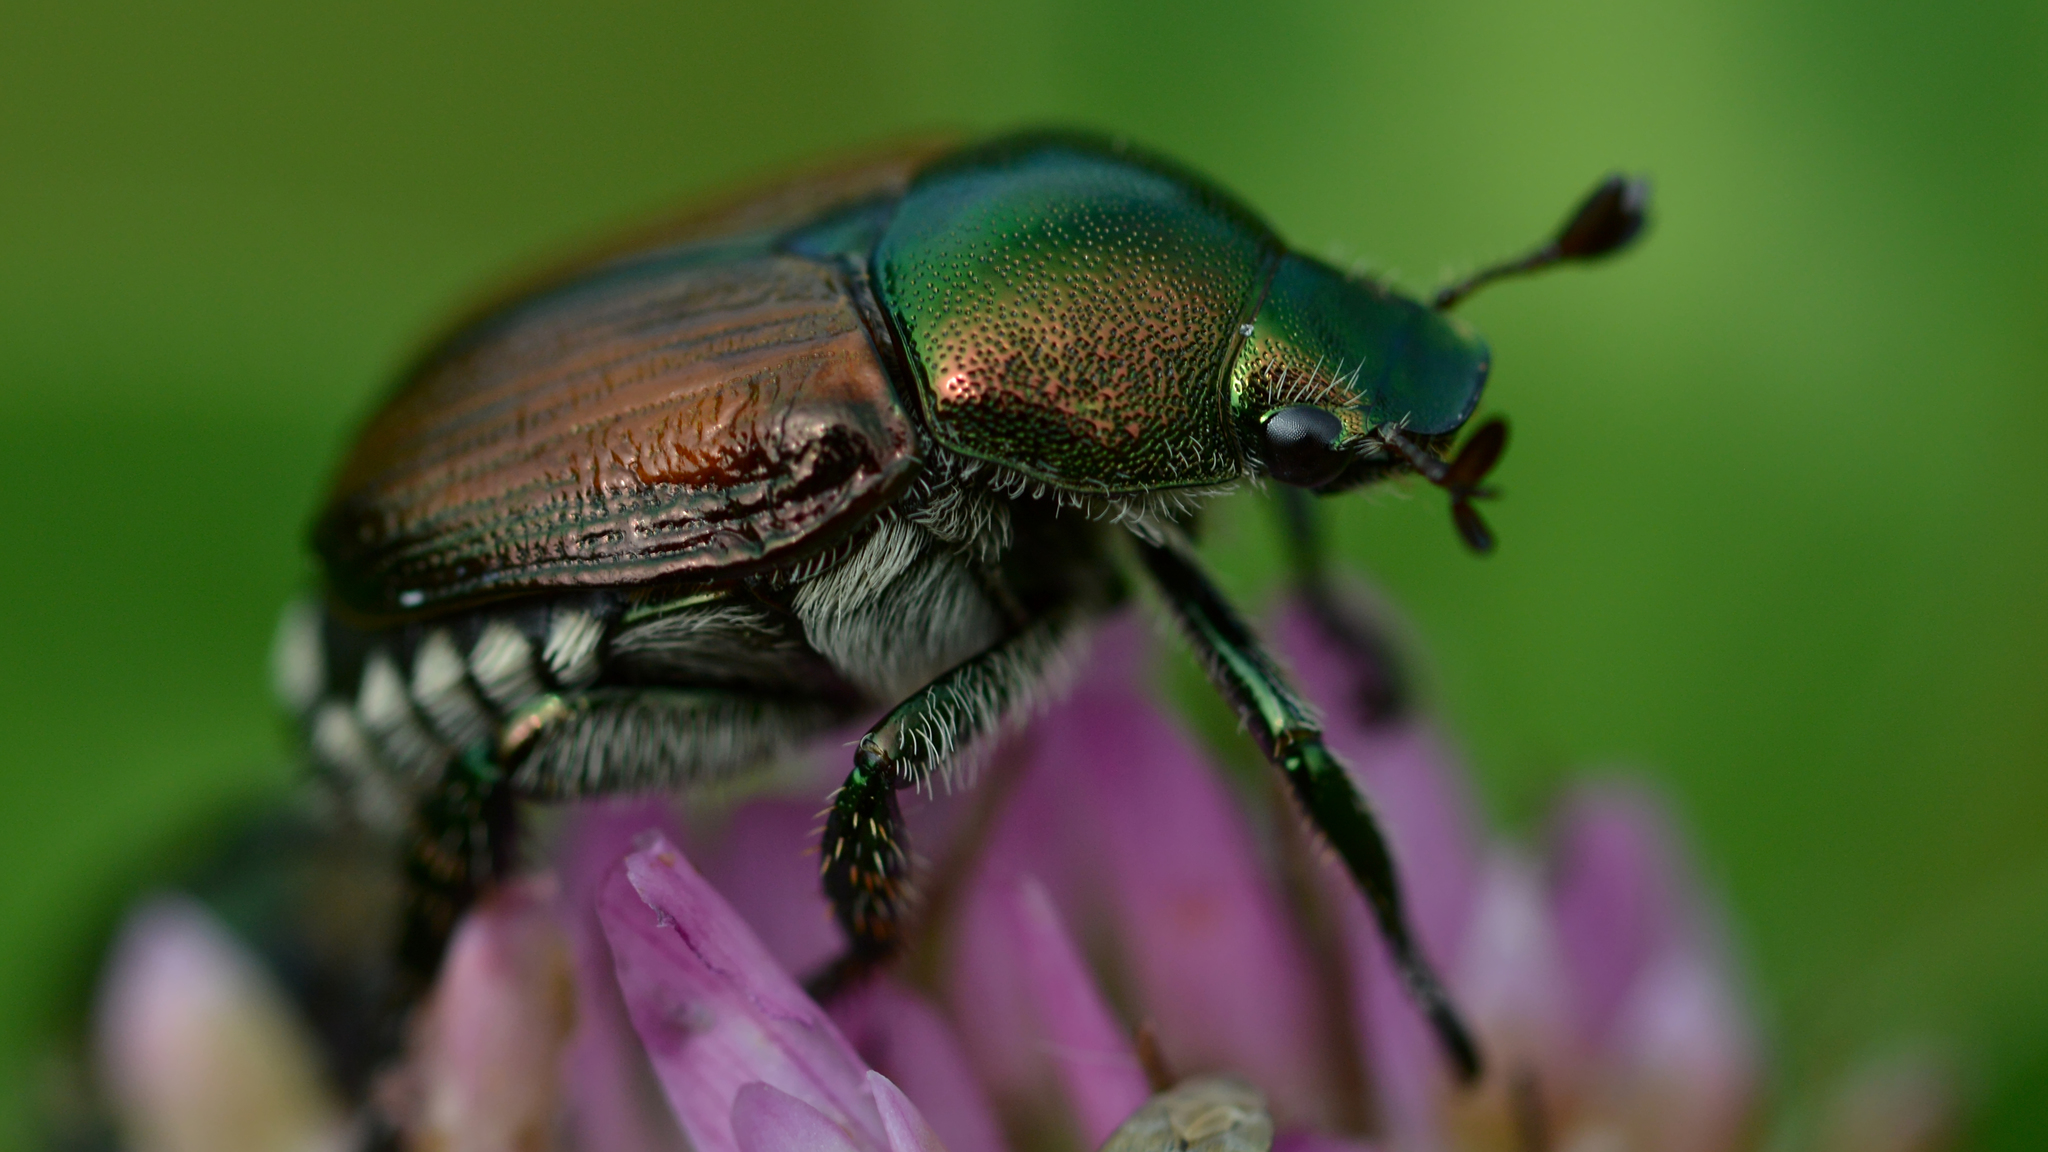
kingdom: Animalia
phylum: Arthropoda
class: Insecta
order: Coleoptera
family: Scarabaeidae
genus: Popillia
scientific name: Popillia japonica
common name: Japanese beetle
